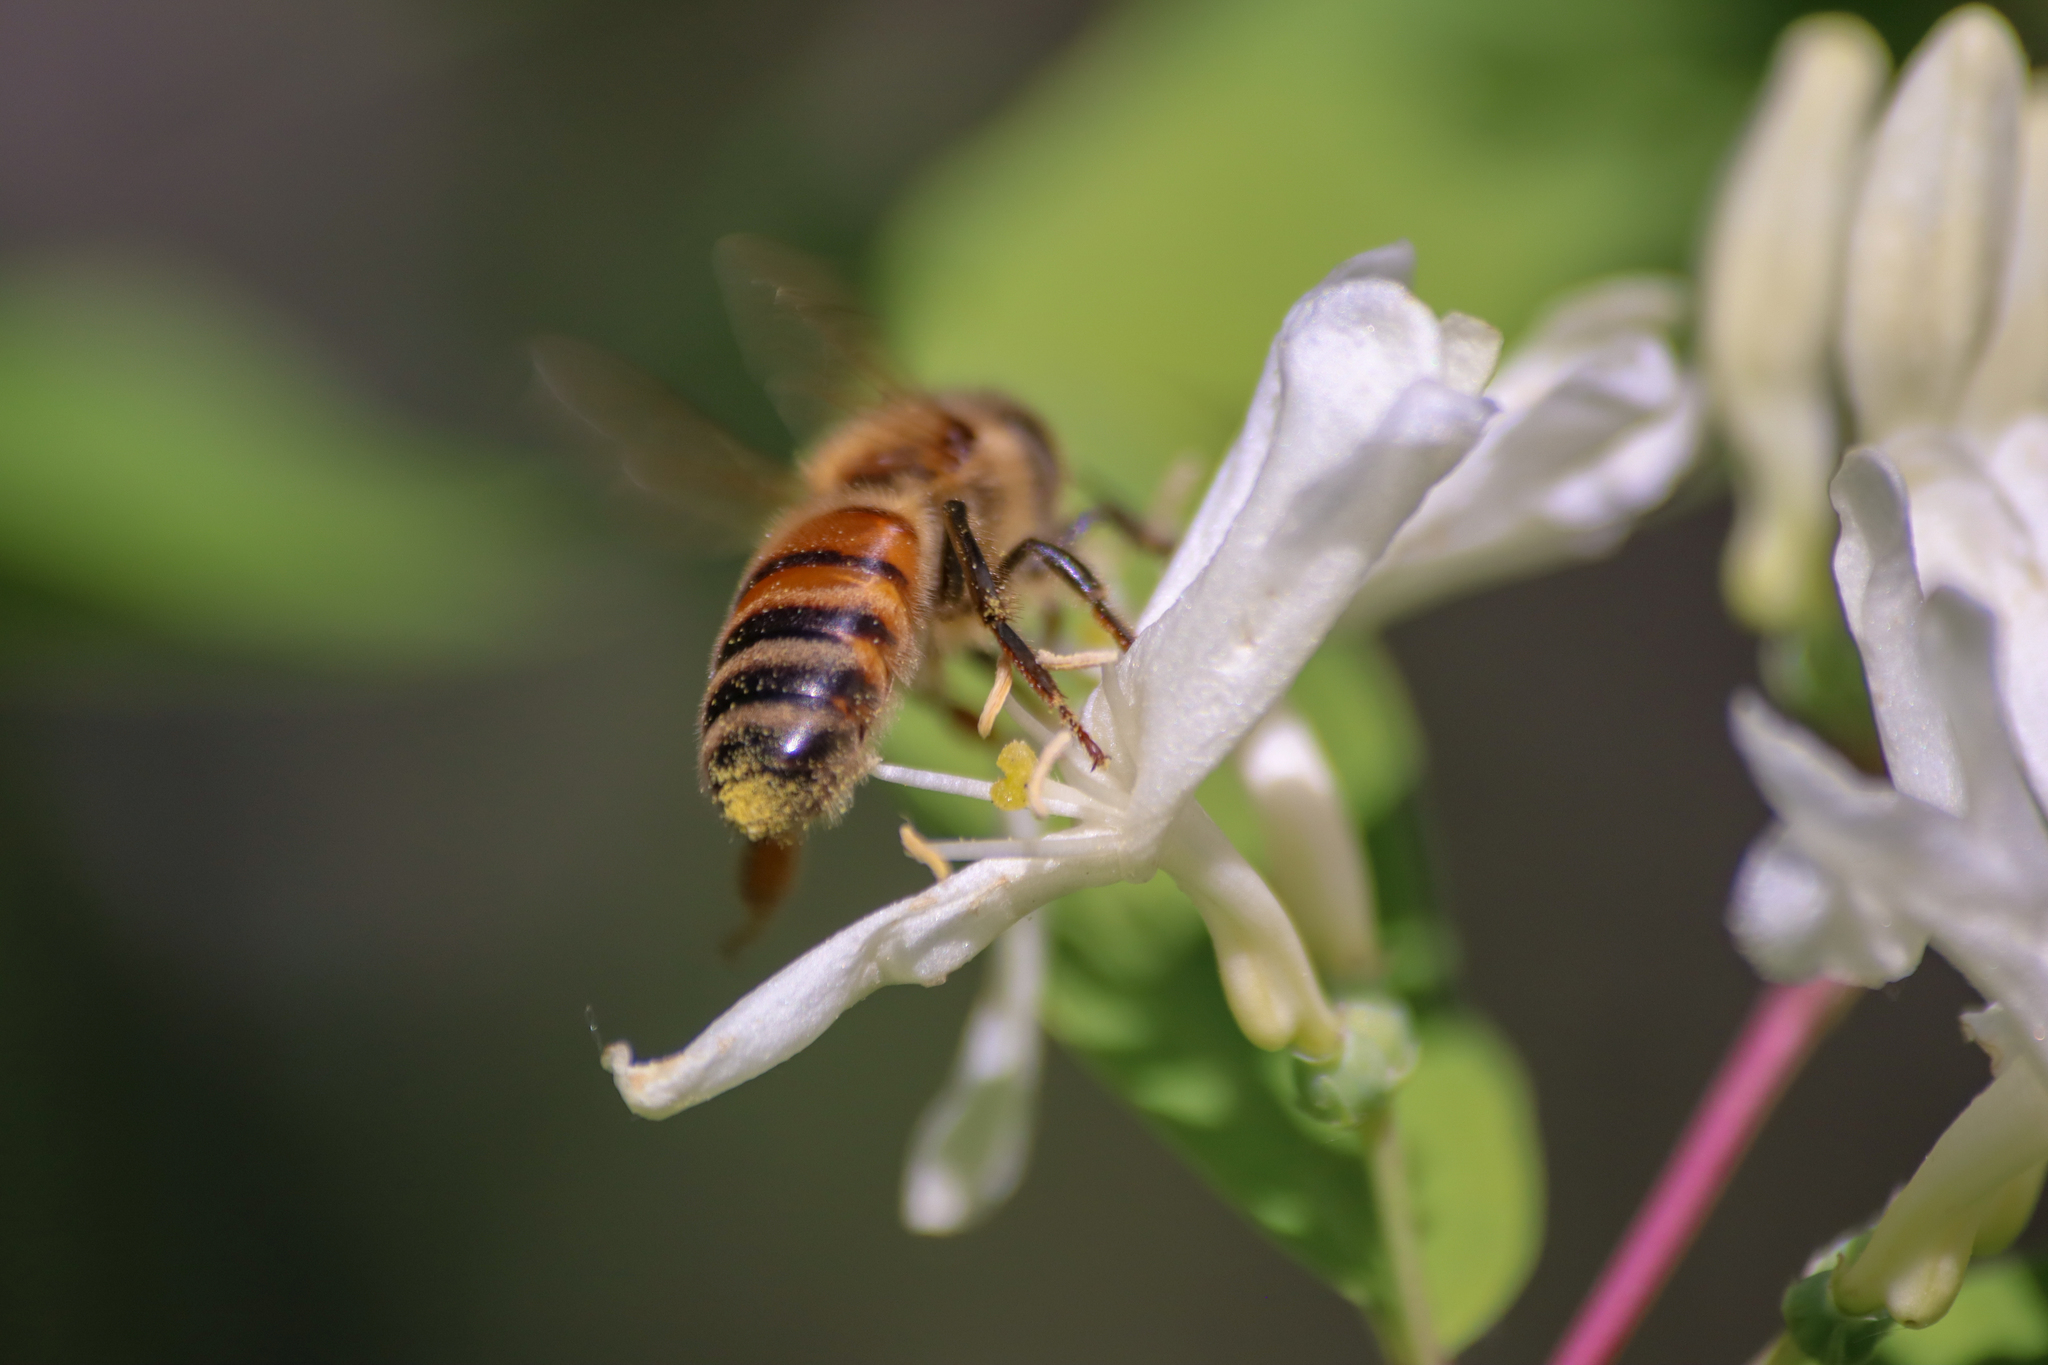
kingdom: Animalia
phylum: Arthropoda
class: Insecta
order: Hymenoptera
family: Apidae
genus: Apis
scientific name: Apis mellifera
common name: Honey bee
